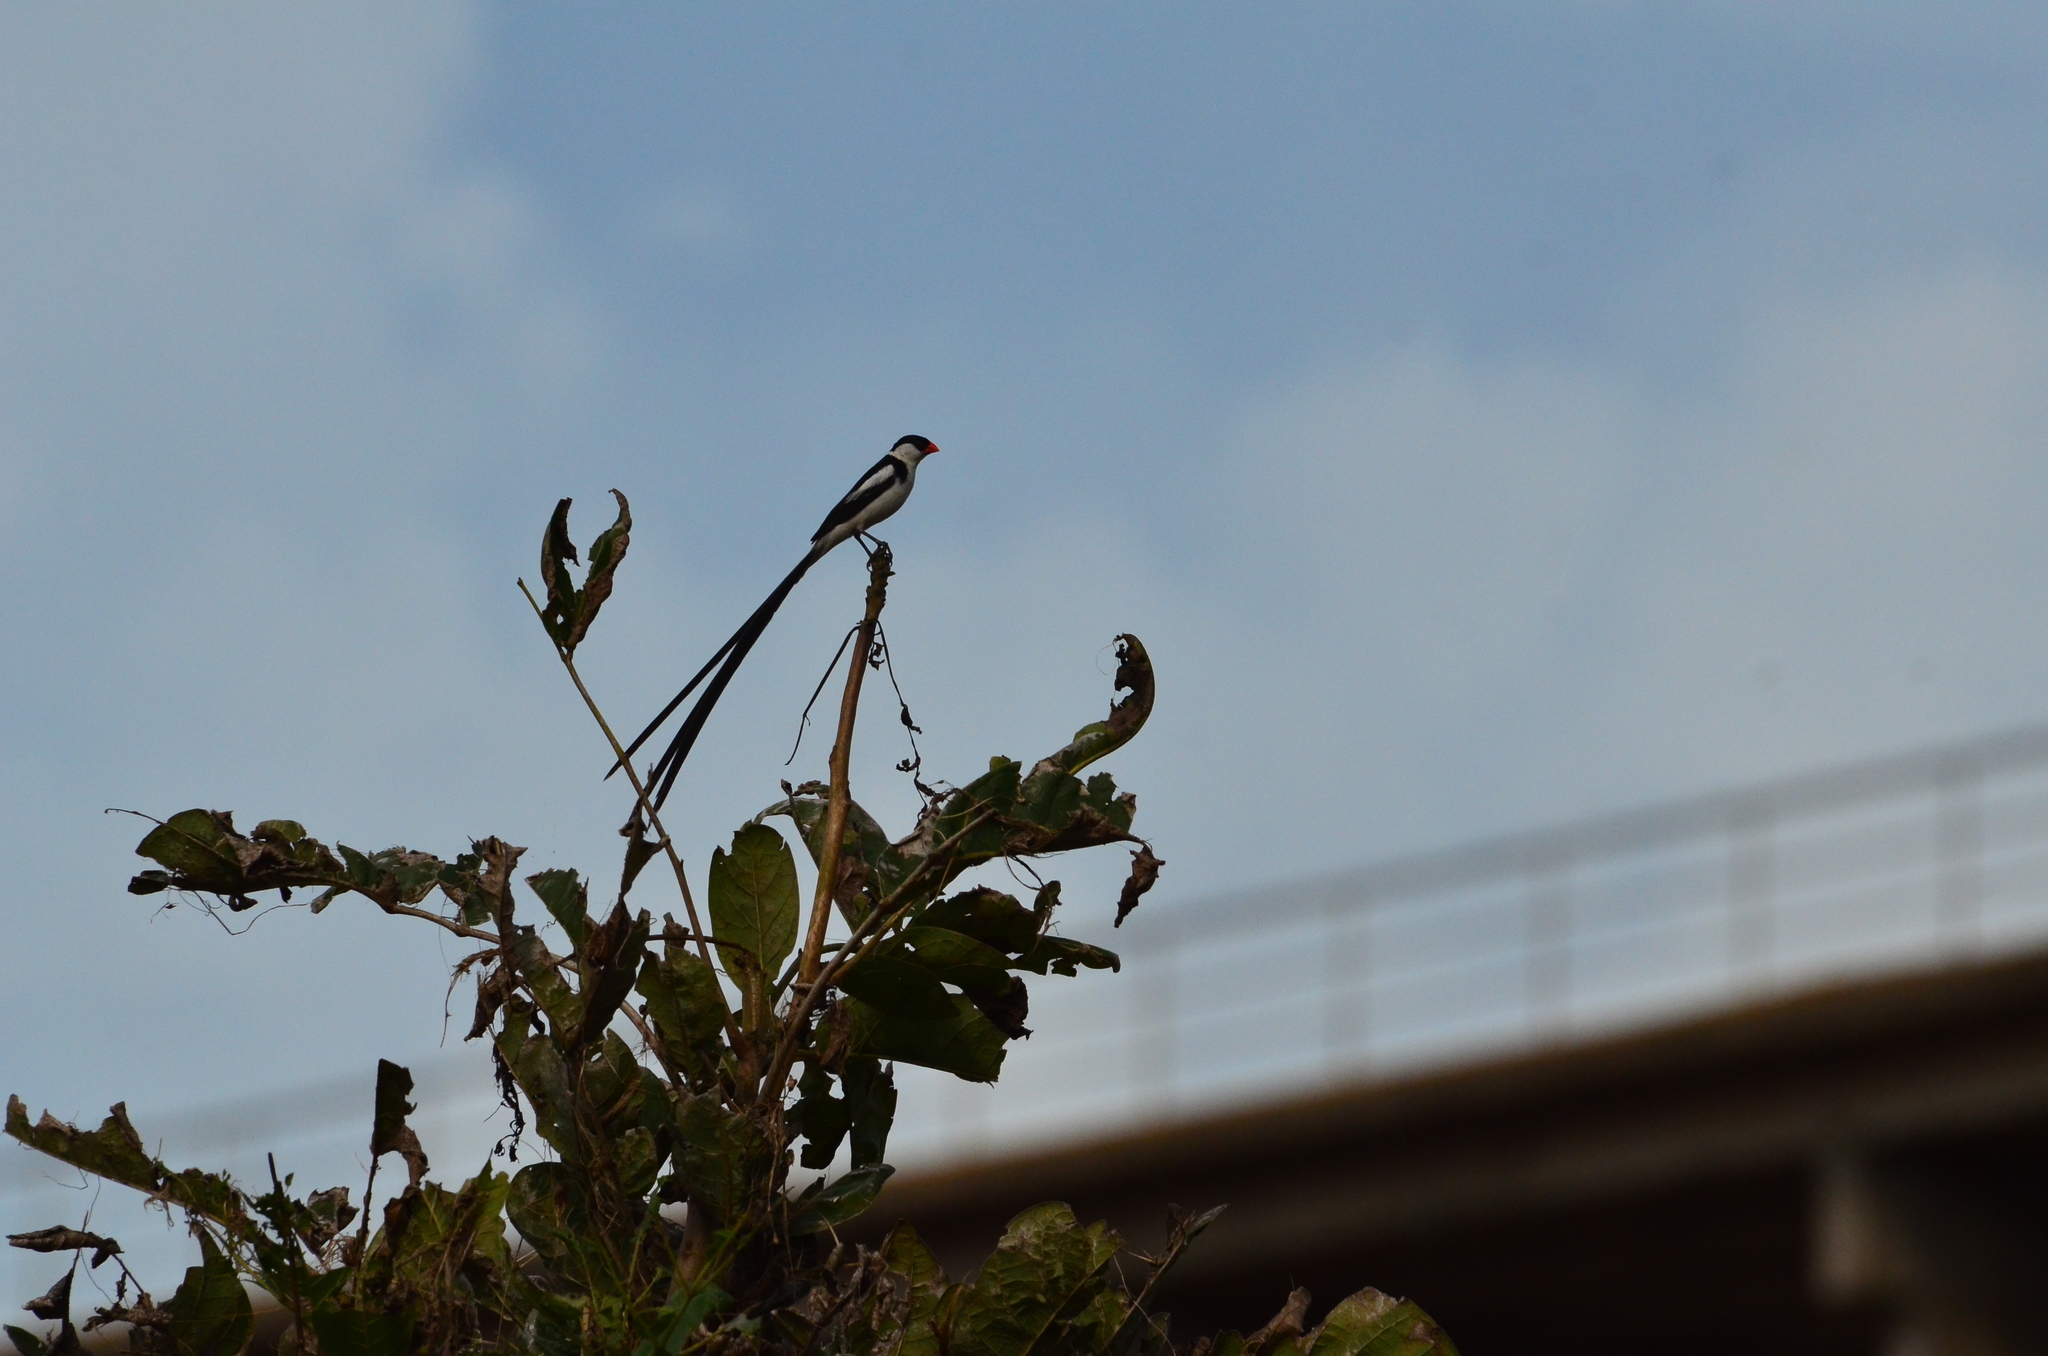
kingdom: Animalia
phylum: Chordata
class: Aves
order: Passeriformes
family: Viduidae
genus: Vidua
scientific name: Vidua macroura
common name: Pin-tailed whydah
